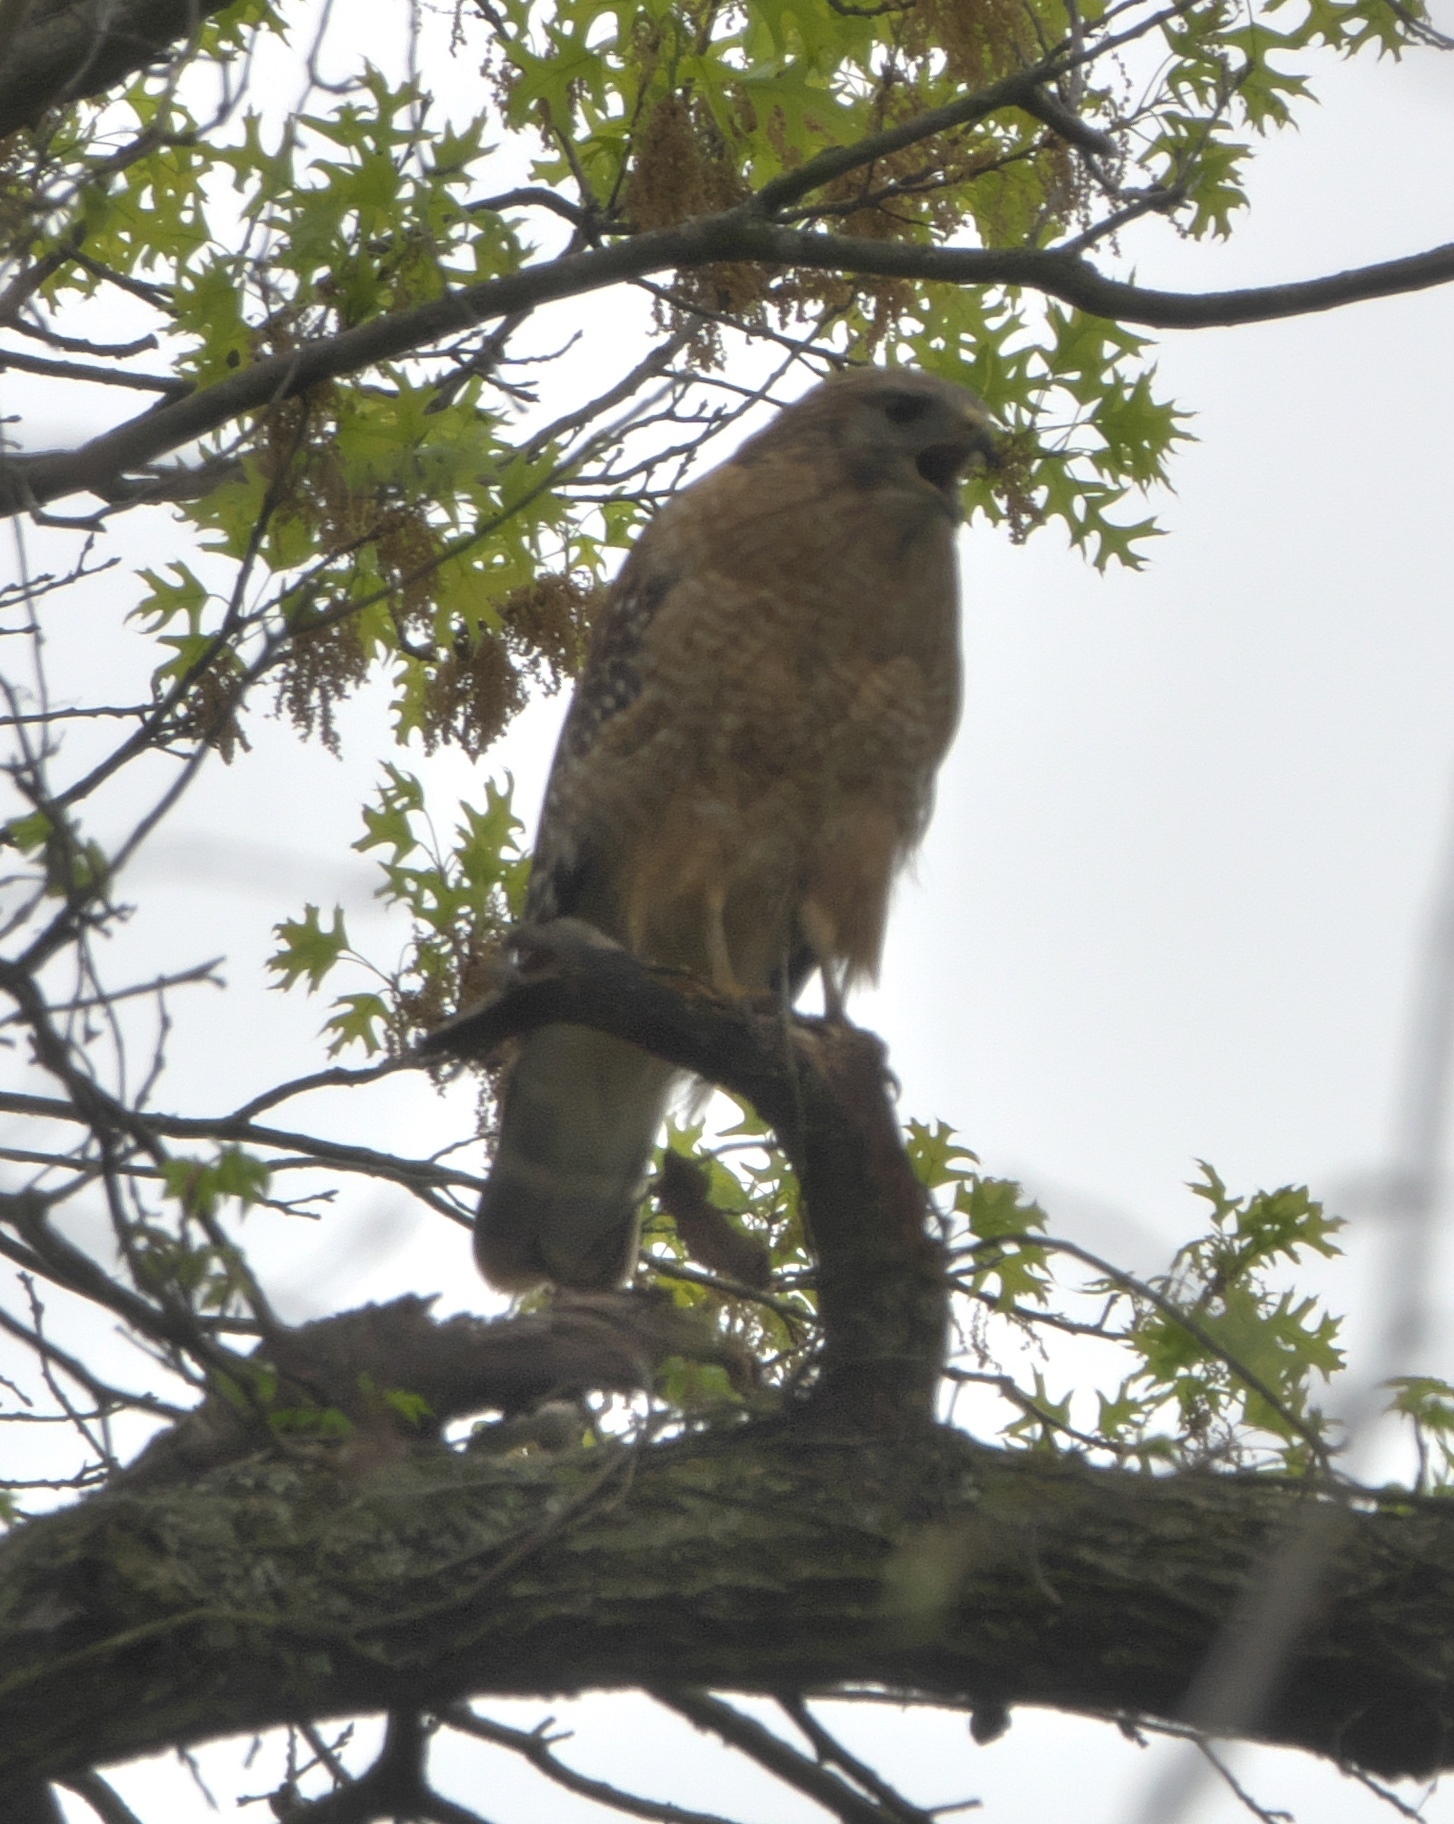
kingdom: Animalia
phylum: Chordata
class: Aves
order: Accipitriformes
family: Accipitridae
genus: Buteo
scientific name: Buteo lineatus
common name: Red-shouldered hawk
